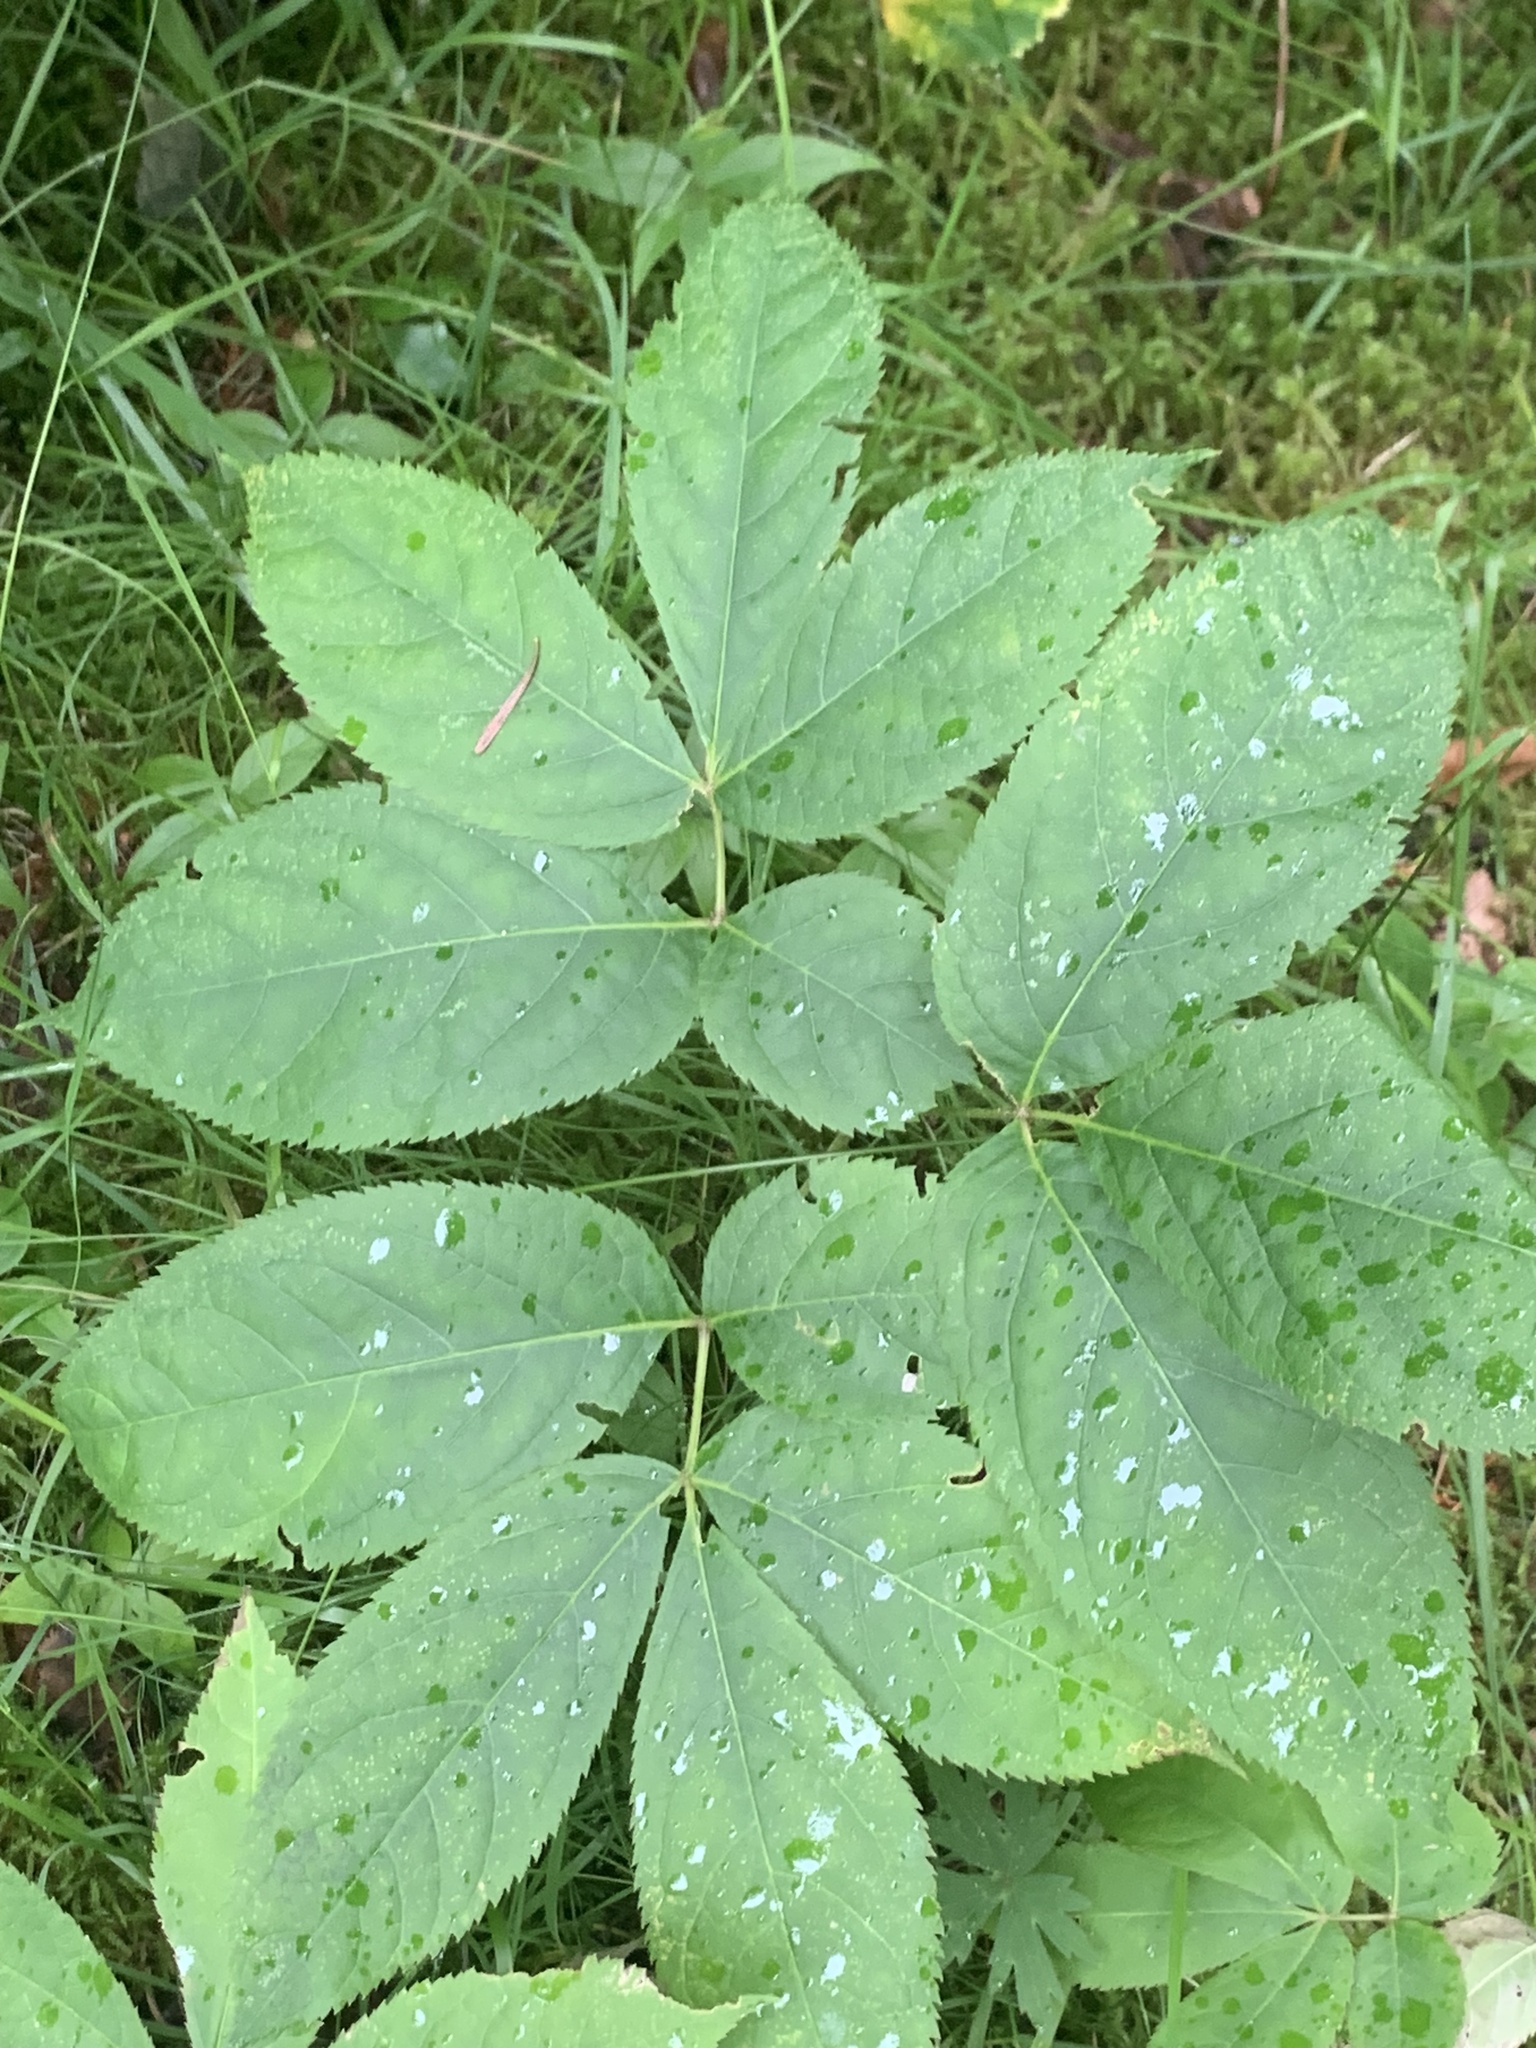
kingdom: Plantae
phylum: Tracheophyta
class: Magnoliopsida
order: Apiales
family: Araliaceae
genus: Aralia
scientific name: Aralia nudicaulis
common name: Wild sarsaparilla
